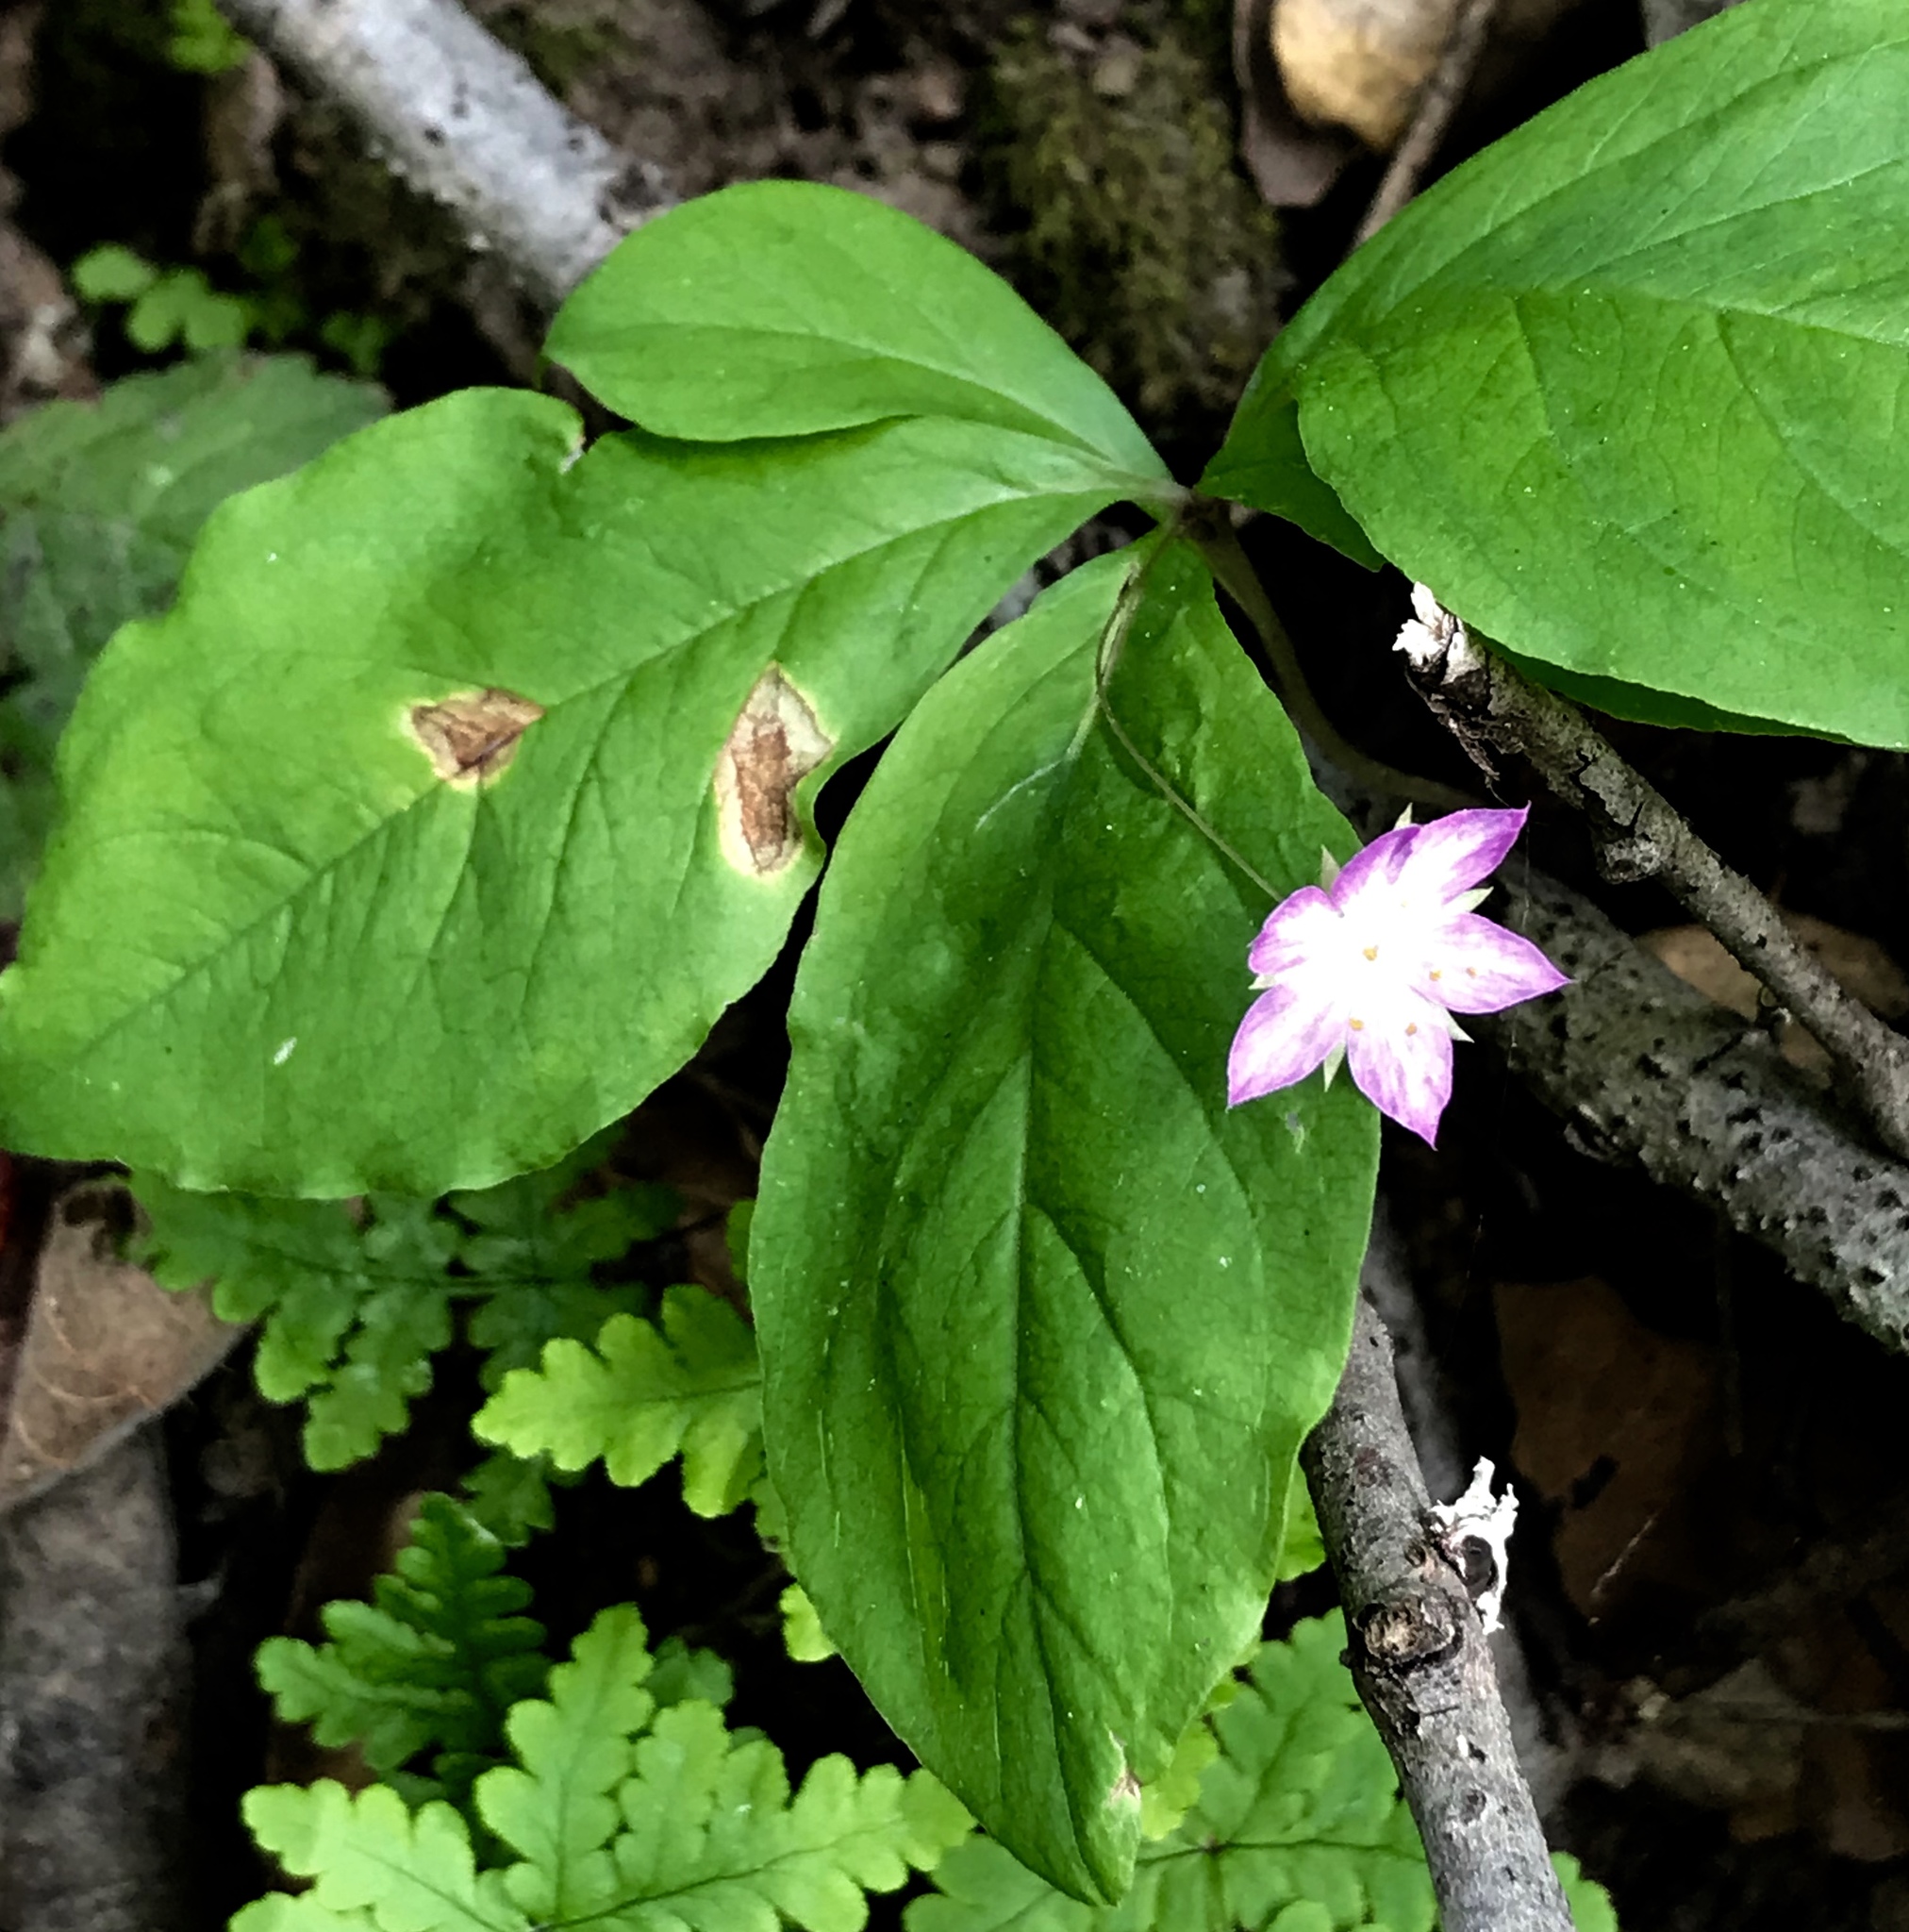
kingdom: Plantae
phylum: Tracheophyta
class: Magnoliopsida
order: Ericales
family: Primulaceae
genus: Lysimachia
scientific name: Lysimachia latifolia
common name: Pacific starflower
